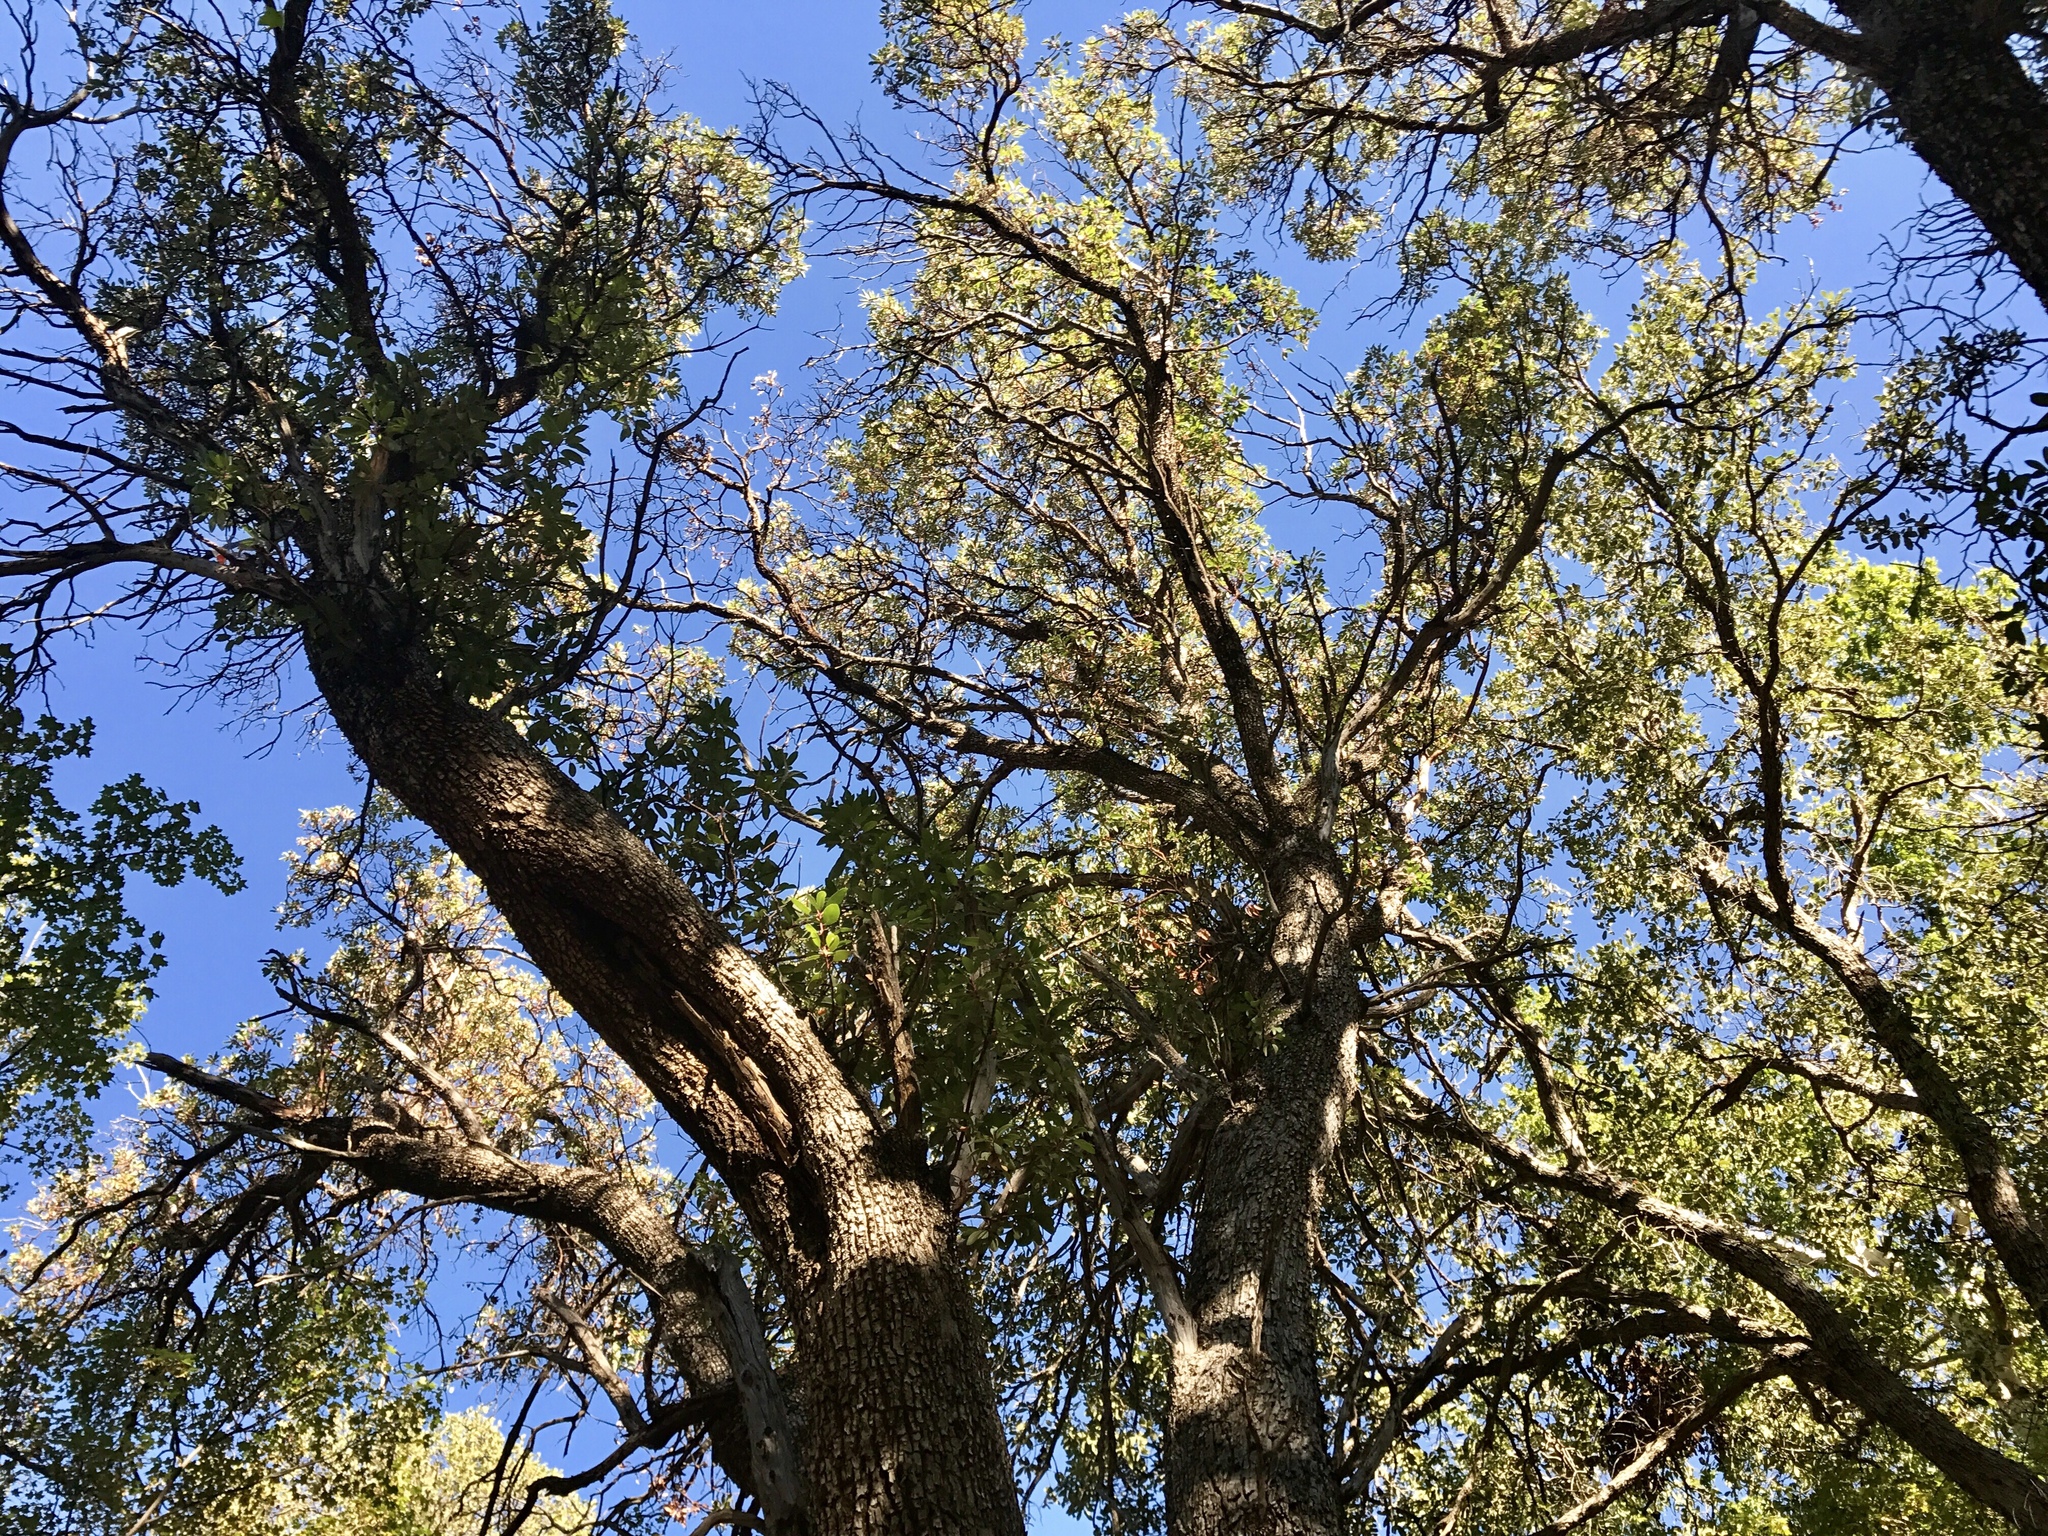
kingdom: Plantae
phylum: Tracheophyta
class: Magnoliopsida
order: Ericales
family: Ericaceae
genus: Arbutus
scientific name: Arbutus arizonica
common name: Arizona madrone
